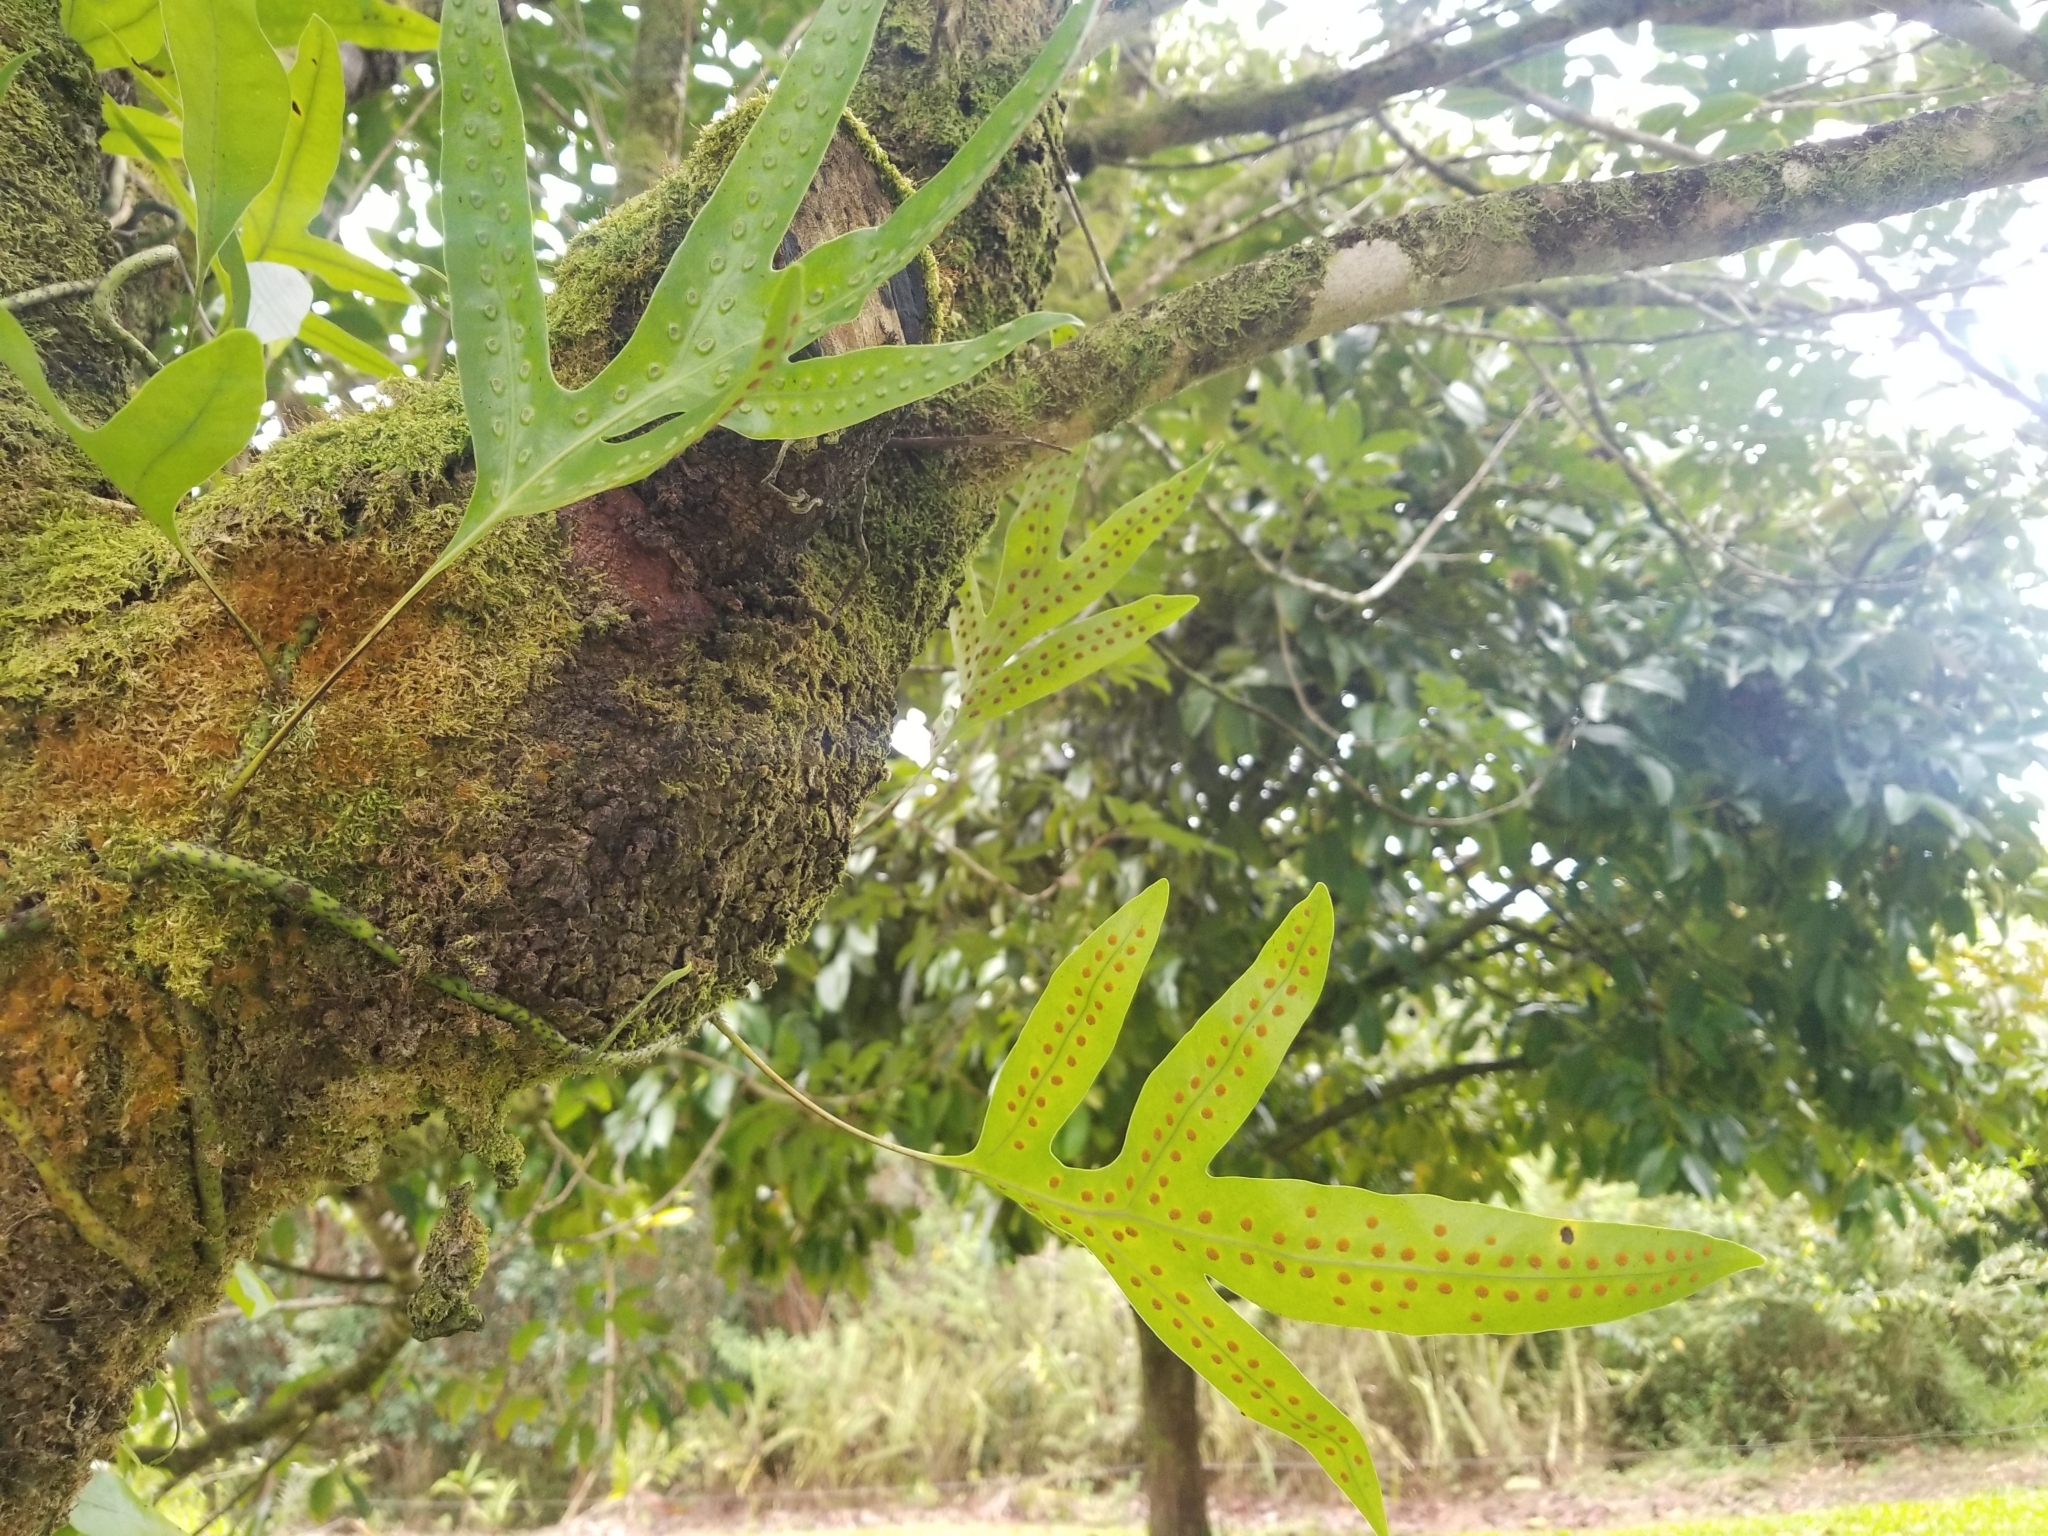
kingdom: Plantae
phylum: Tracheophyta
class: Polypodiopsida
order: Polypodiales
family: Polypodiaceae
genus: Microsorum
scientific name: Microsorum grossum
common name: Musk fern
